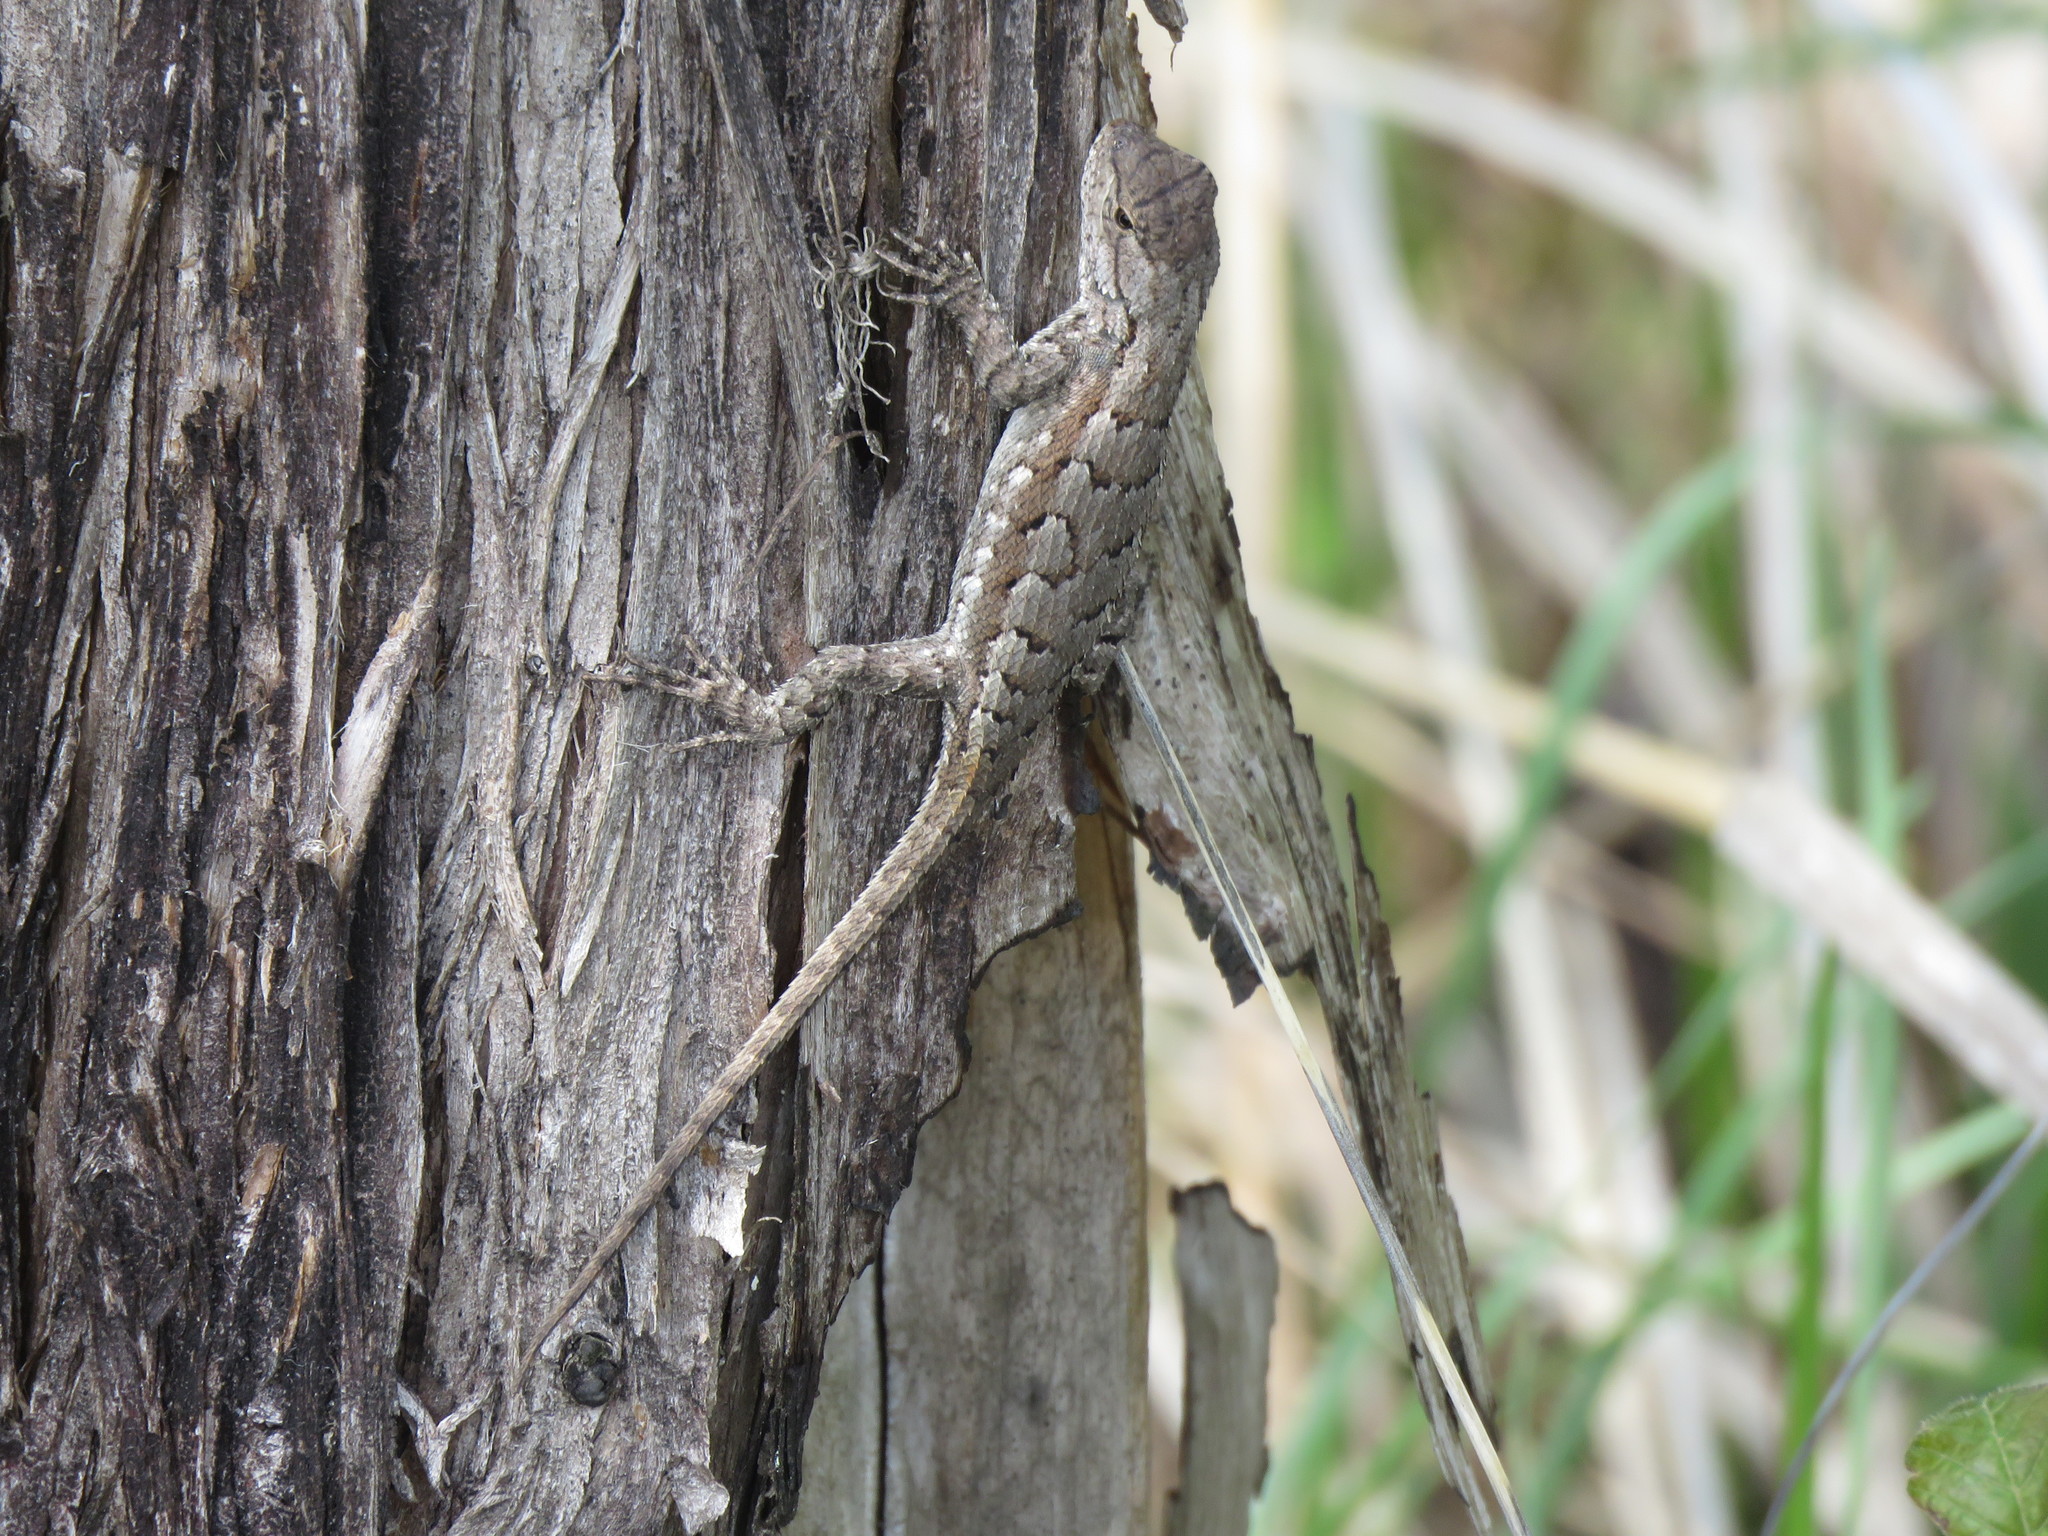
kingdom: Animalia
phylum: Chordata
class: Squamata
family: Phrynosomatidae
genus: Sceloporus
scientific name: Sceloporus consobrinus
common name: Southern prairie lizard
